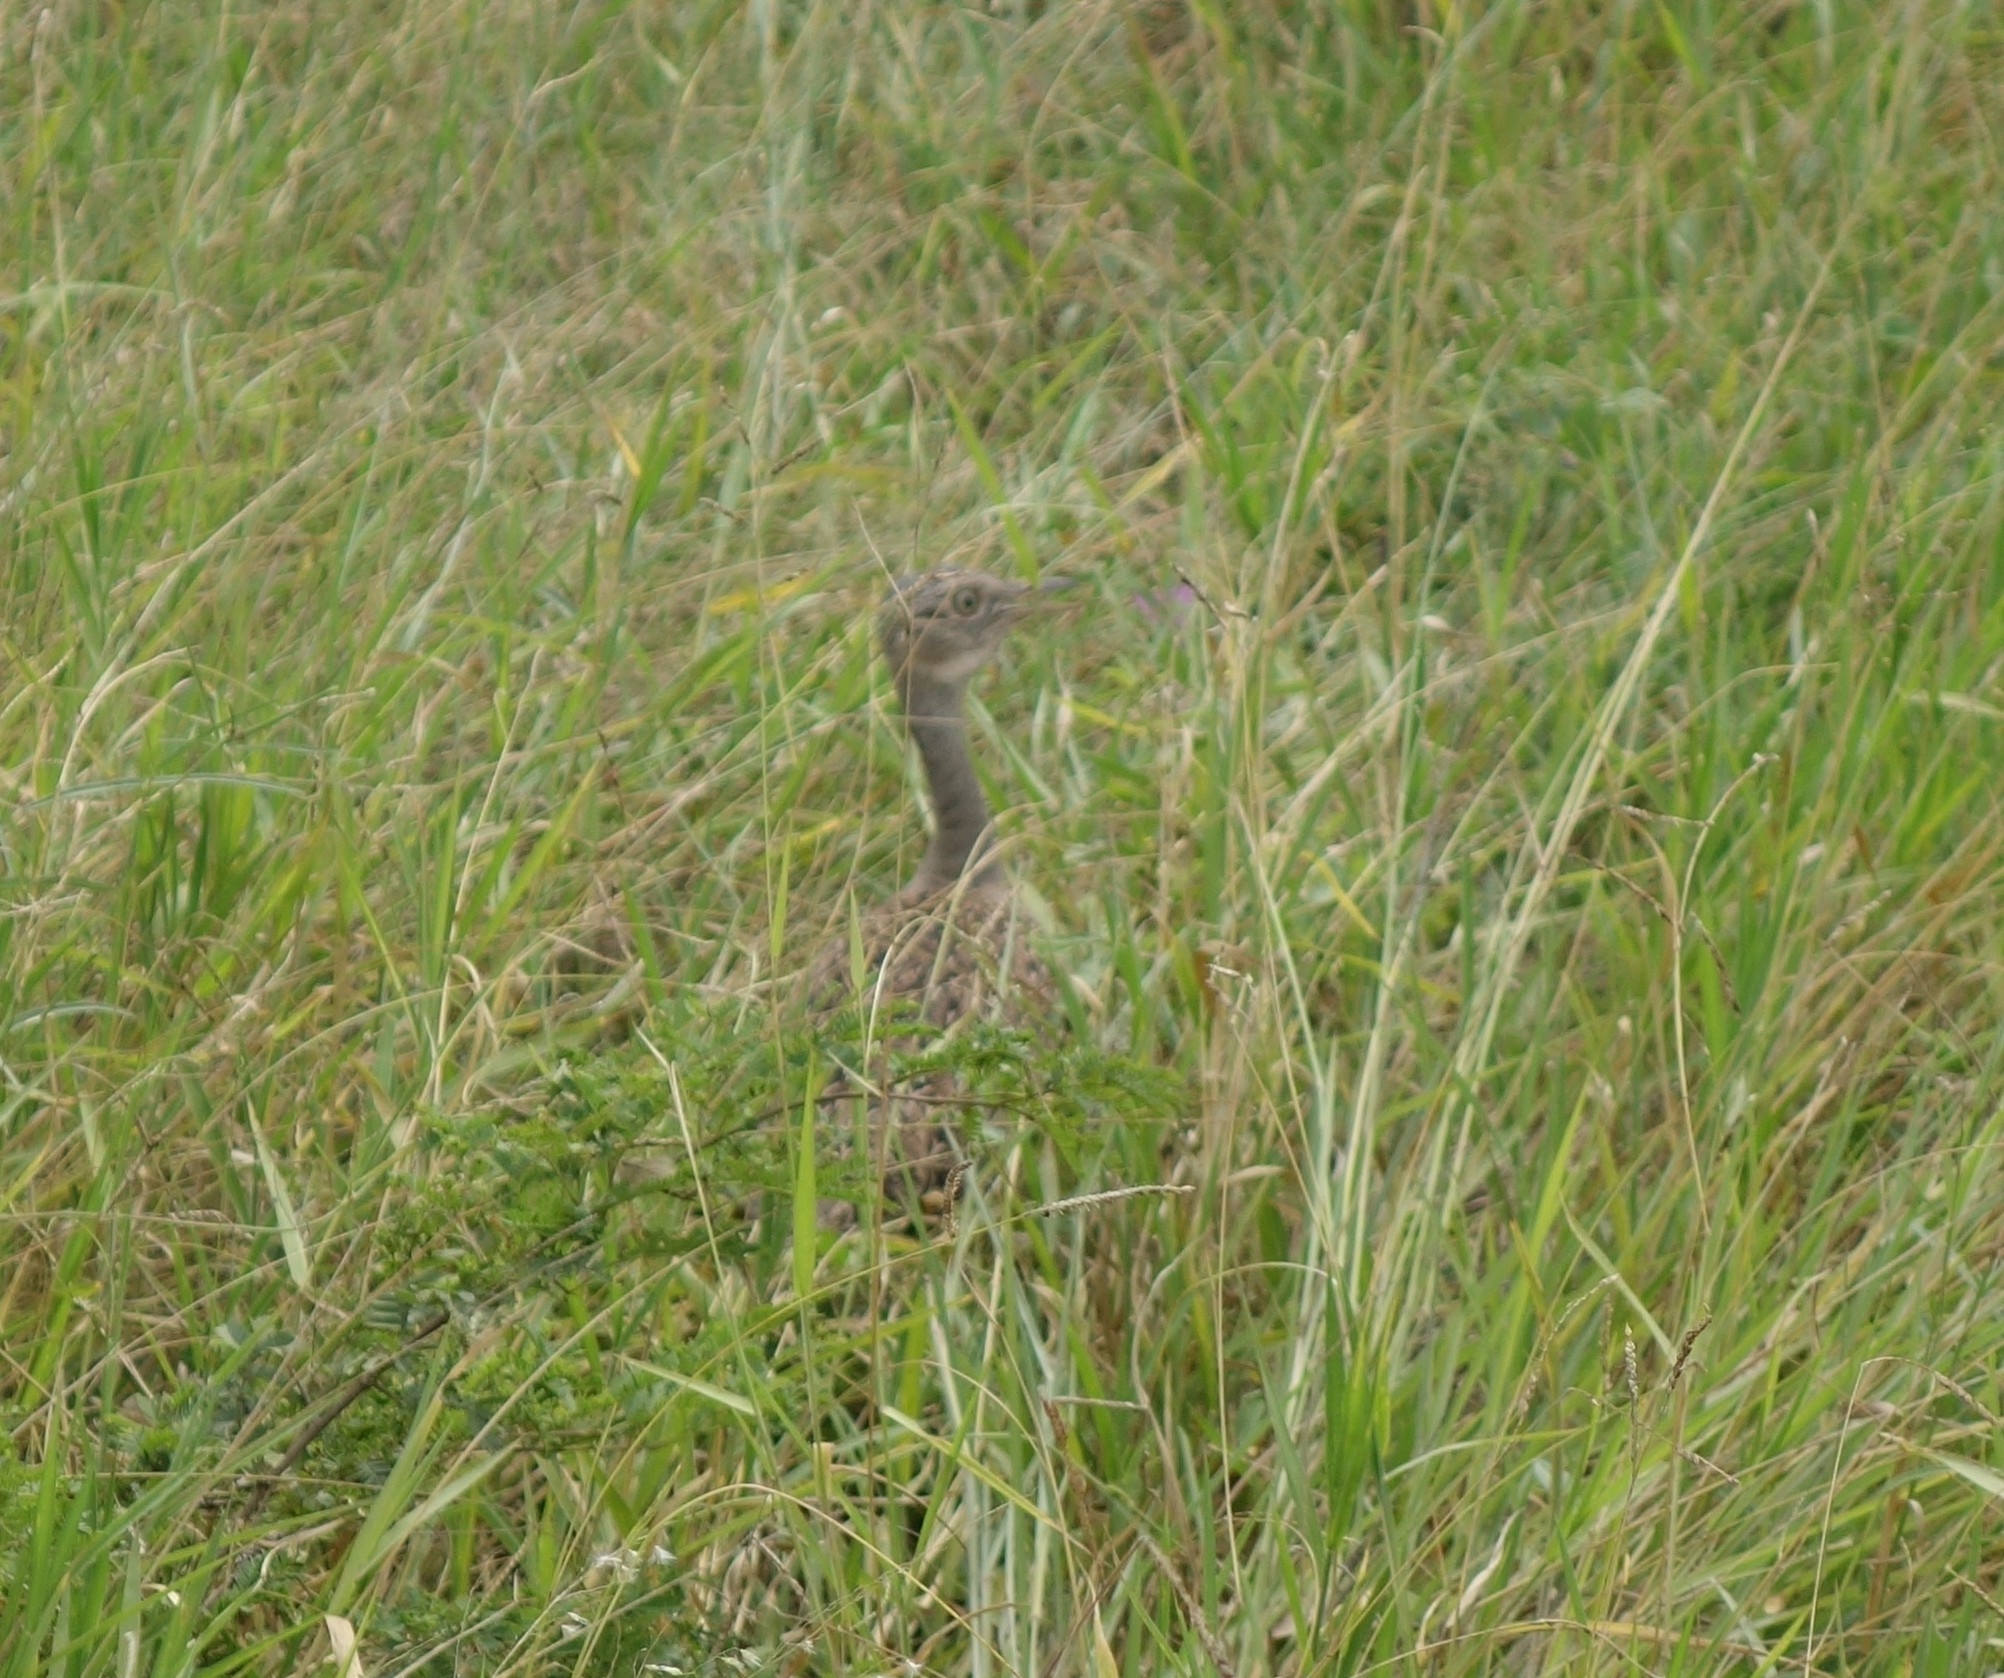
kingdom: Animalia
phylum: Chordata
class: Aves
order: Otidiformes
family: Otididae
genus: Lophotis
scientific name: Lophotis ruficrista
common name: Red-crested korhaan
